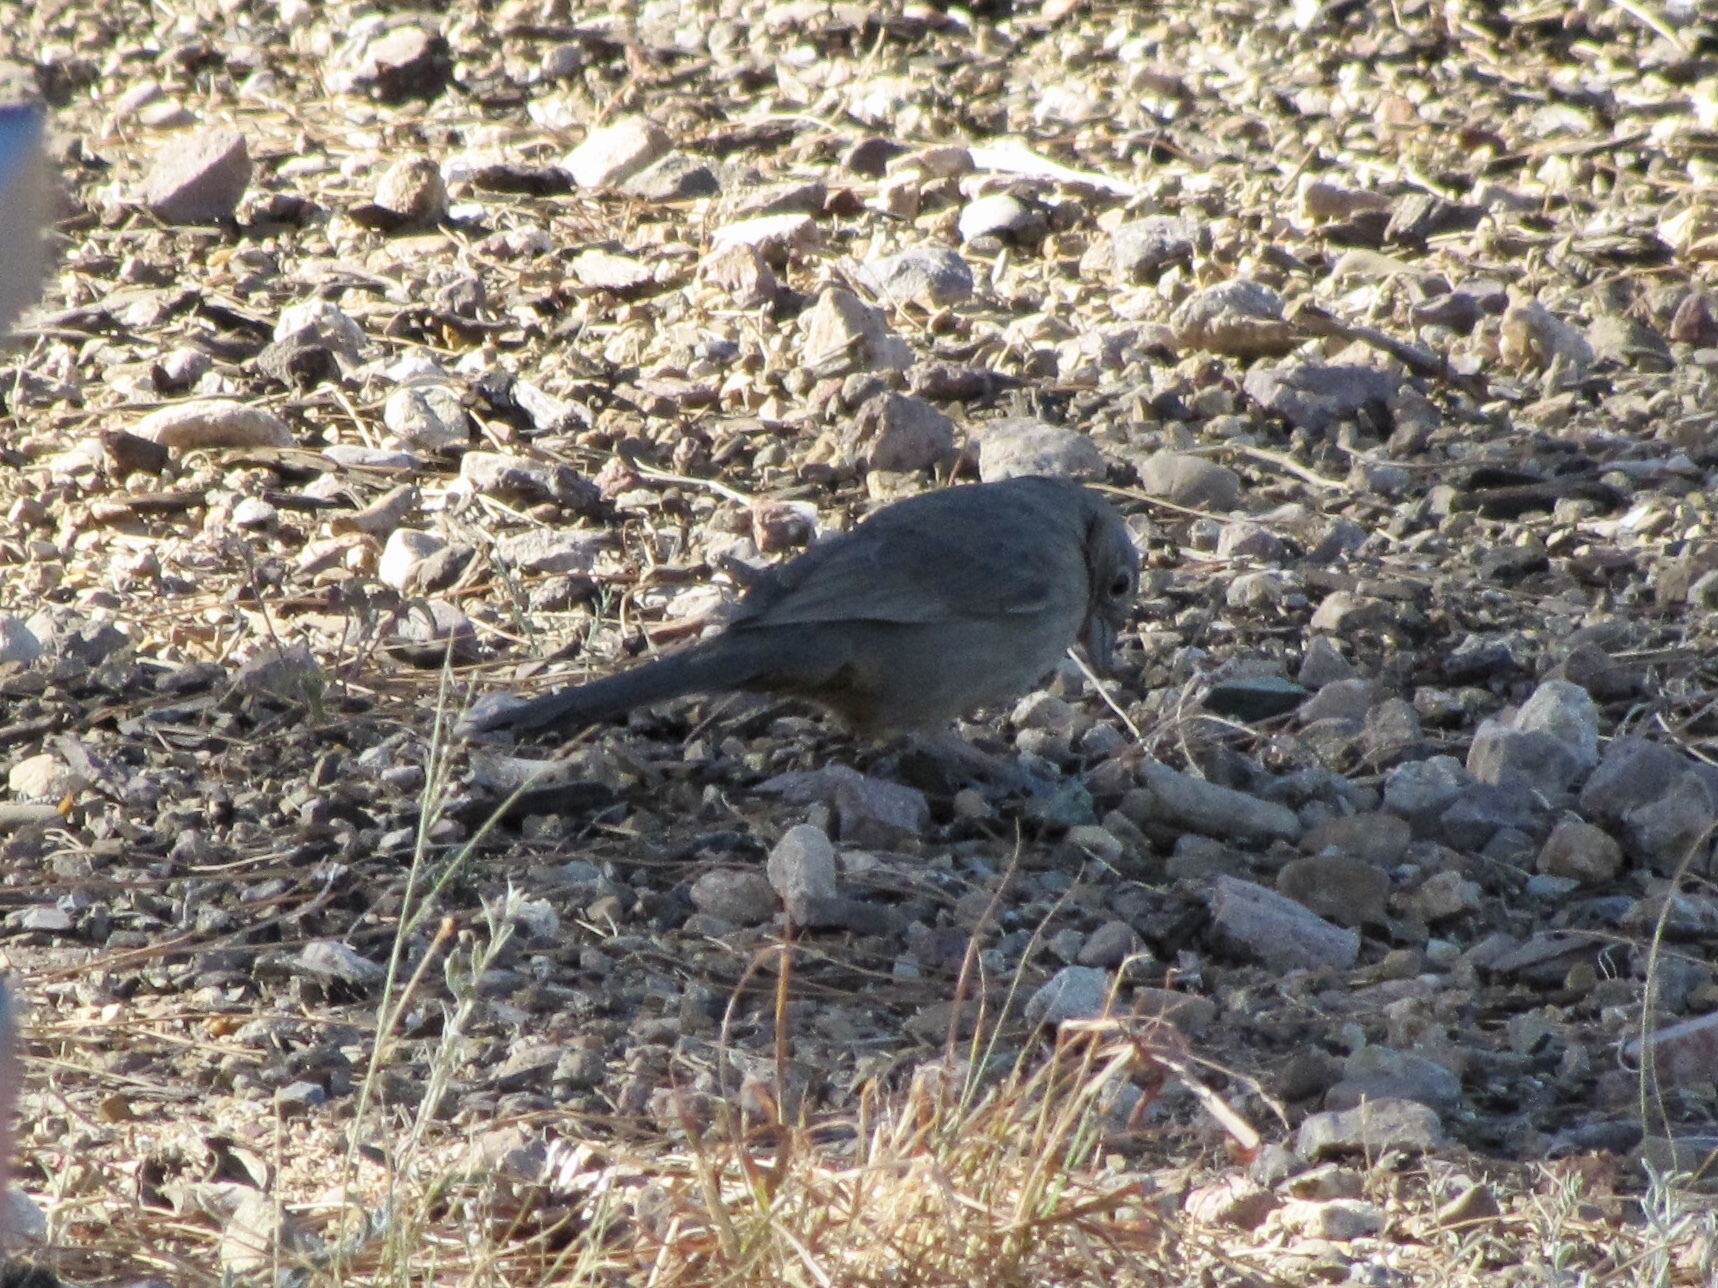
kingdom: Animalia
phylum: Chordata
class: Aves
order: Passeriformes
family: Passerellidae
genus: Melozone
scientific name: Melozone fusca
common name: Canyon towhee
